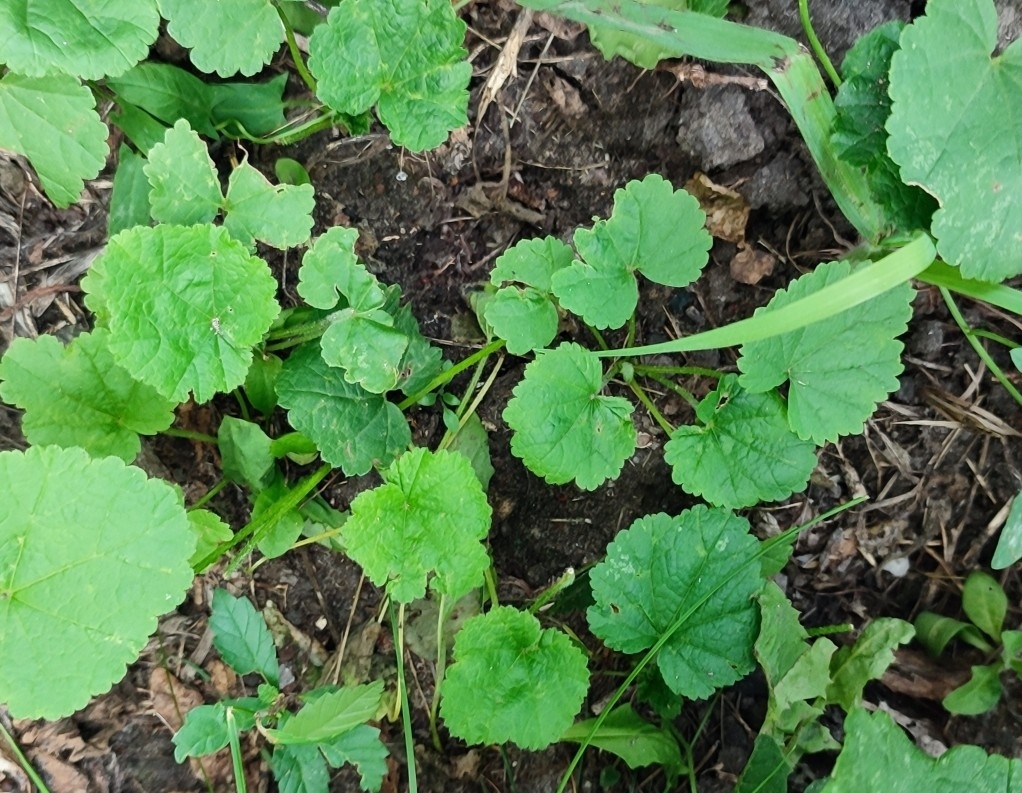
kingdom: Plantae
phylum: Tracheophyta
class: Magnoliopsida
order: Malvales
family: Malvaceae
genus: Alcea
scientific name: Alcea rosea
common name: Hollyhock
